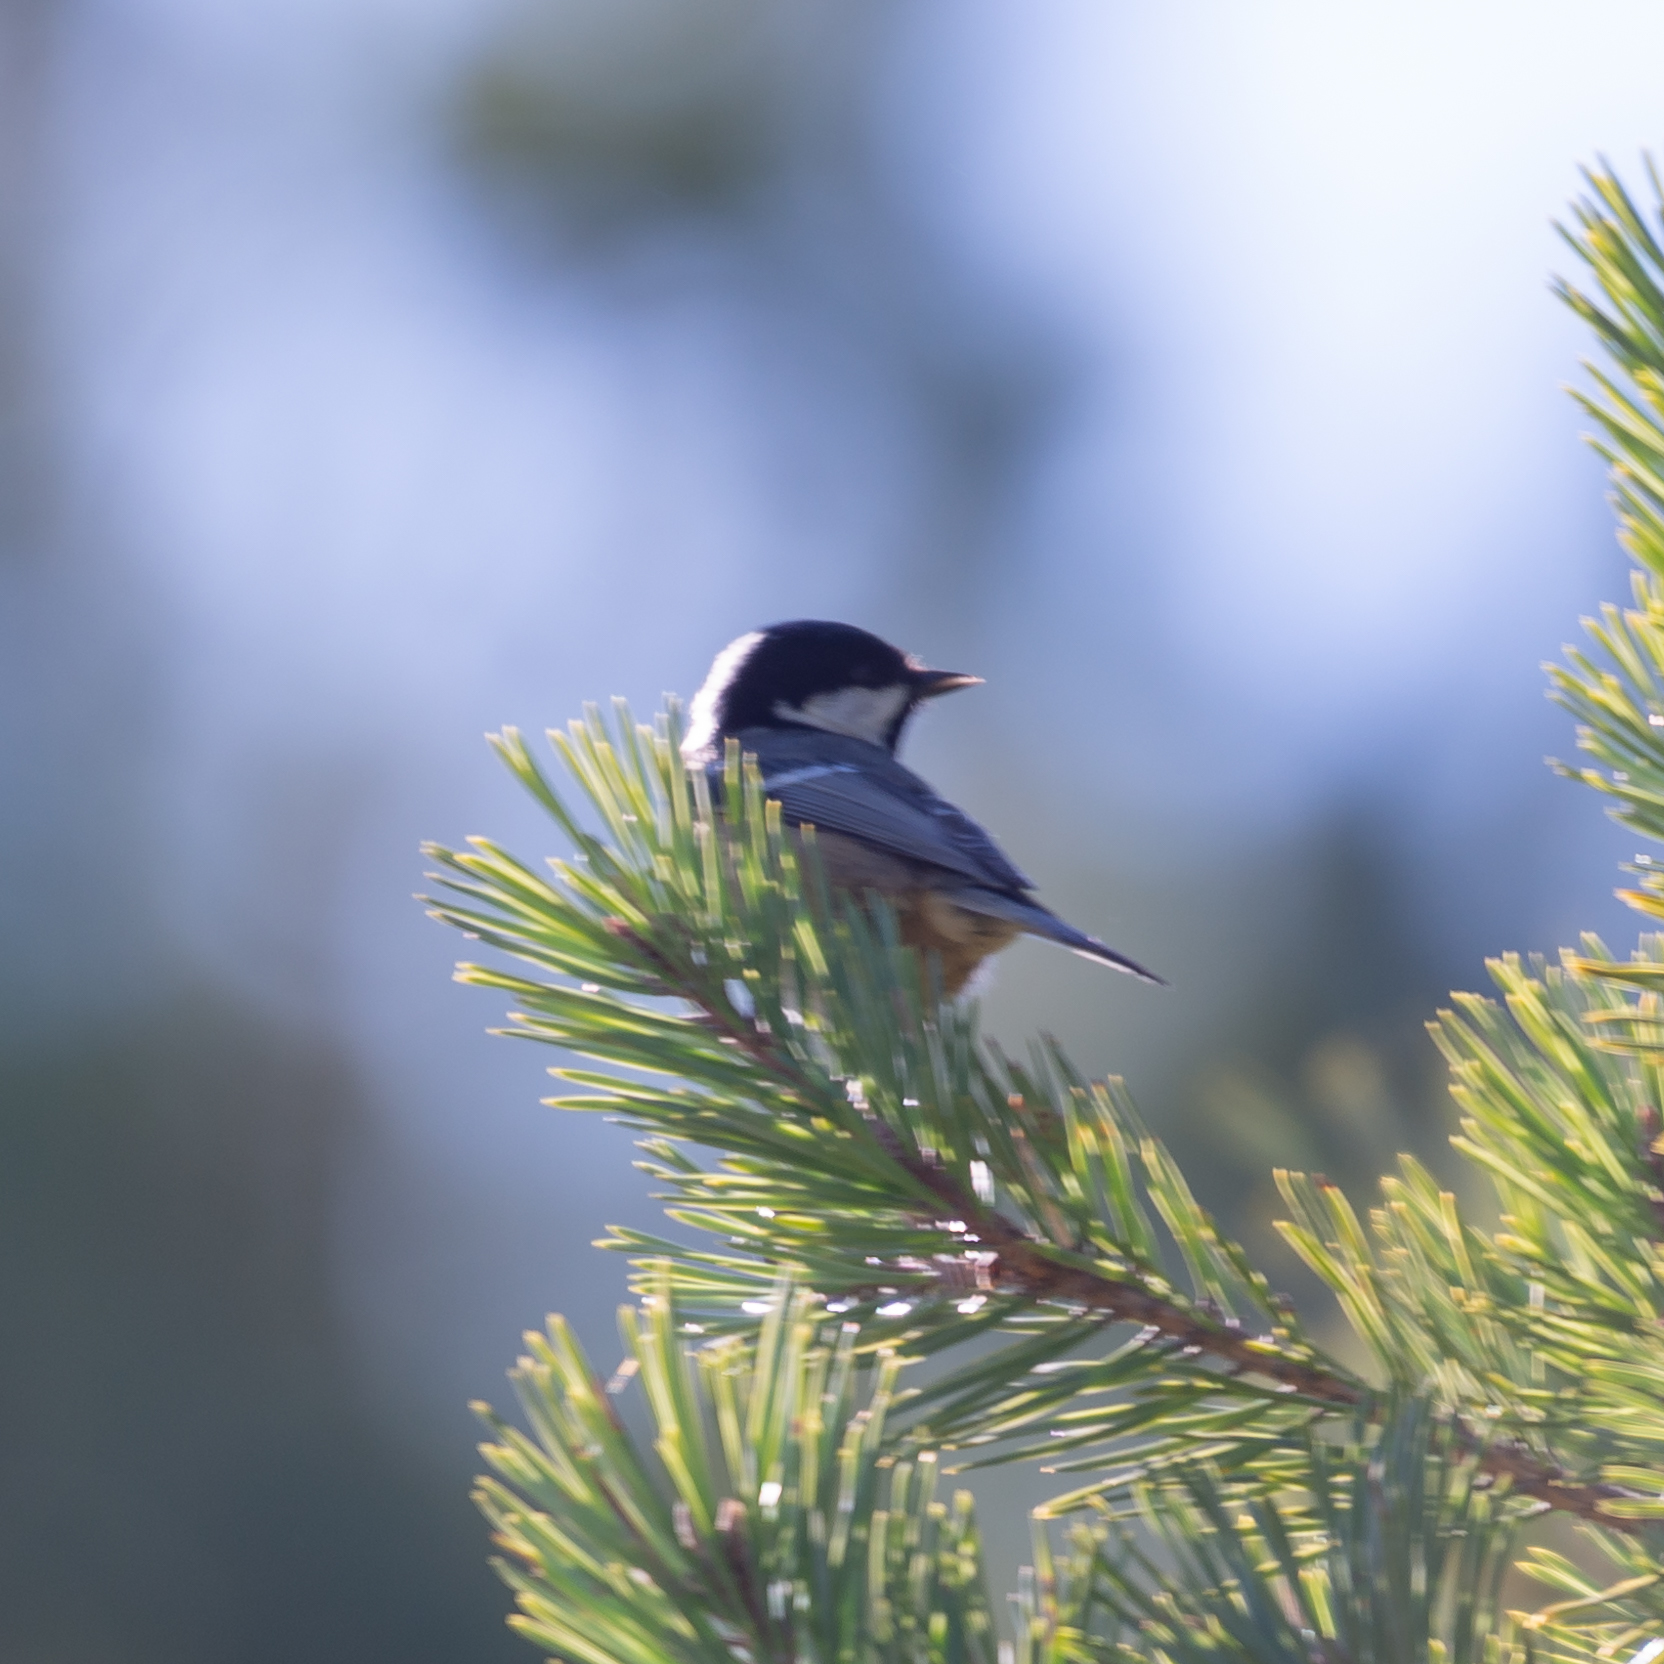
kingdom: Animalia
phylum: Chordata
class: Aves
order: Passeriformes
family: Paridae
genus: Periparus
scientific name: Periparus ater
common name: Coal tit
